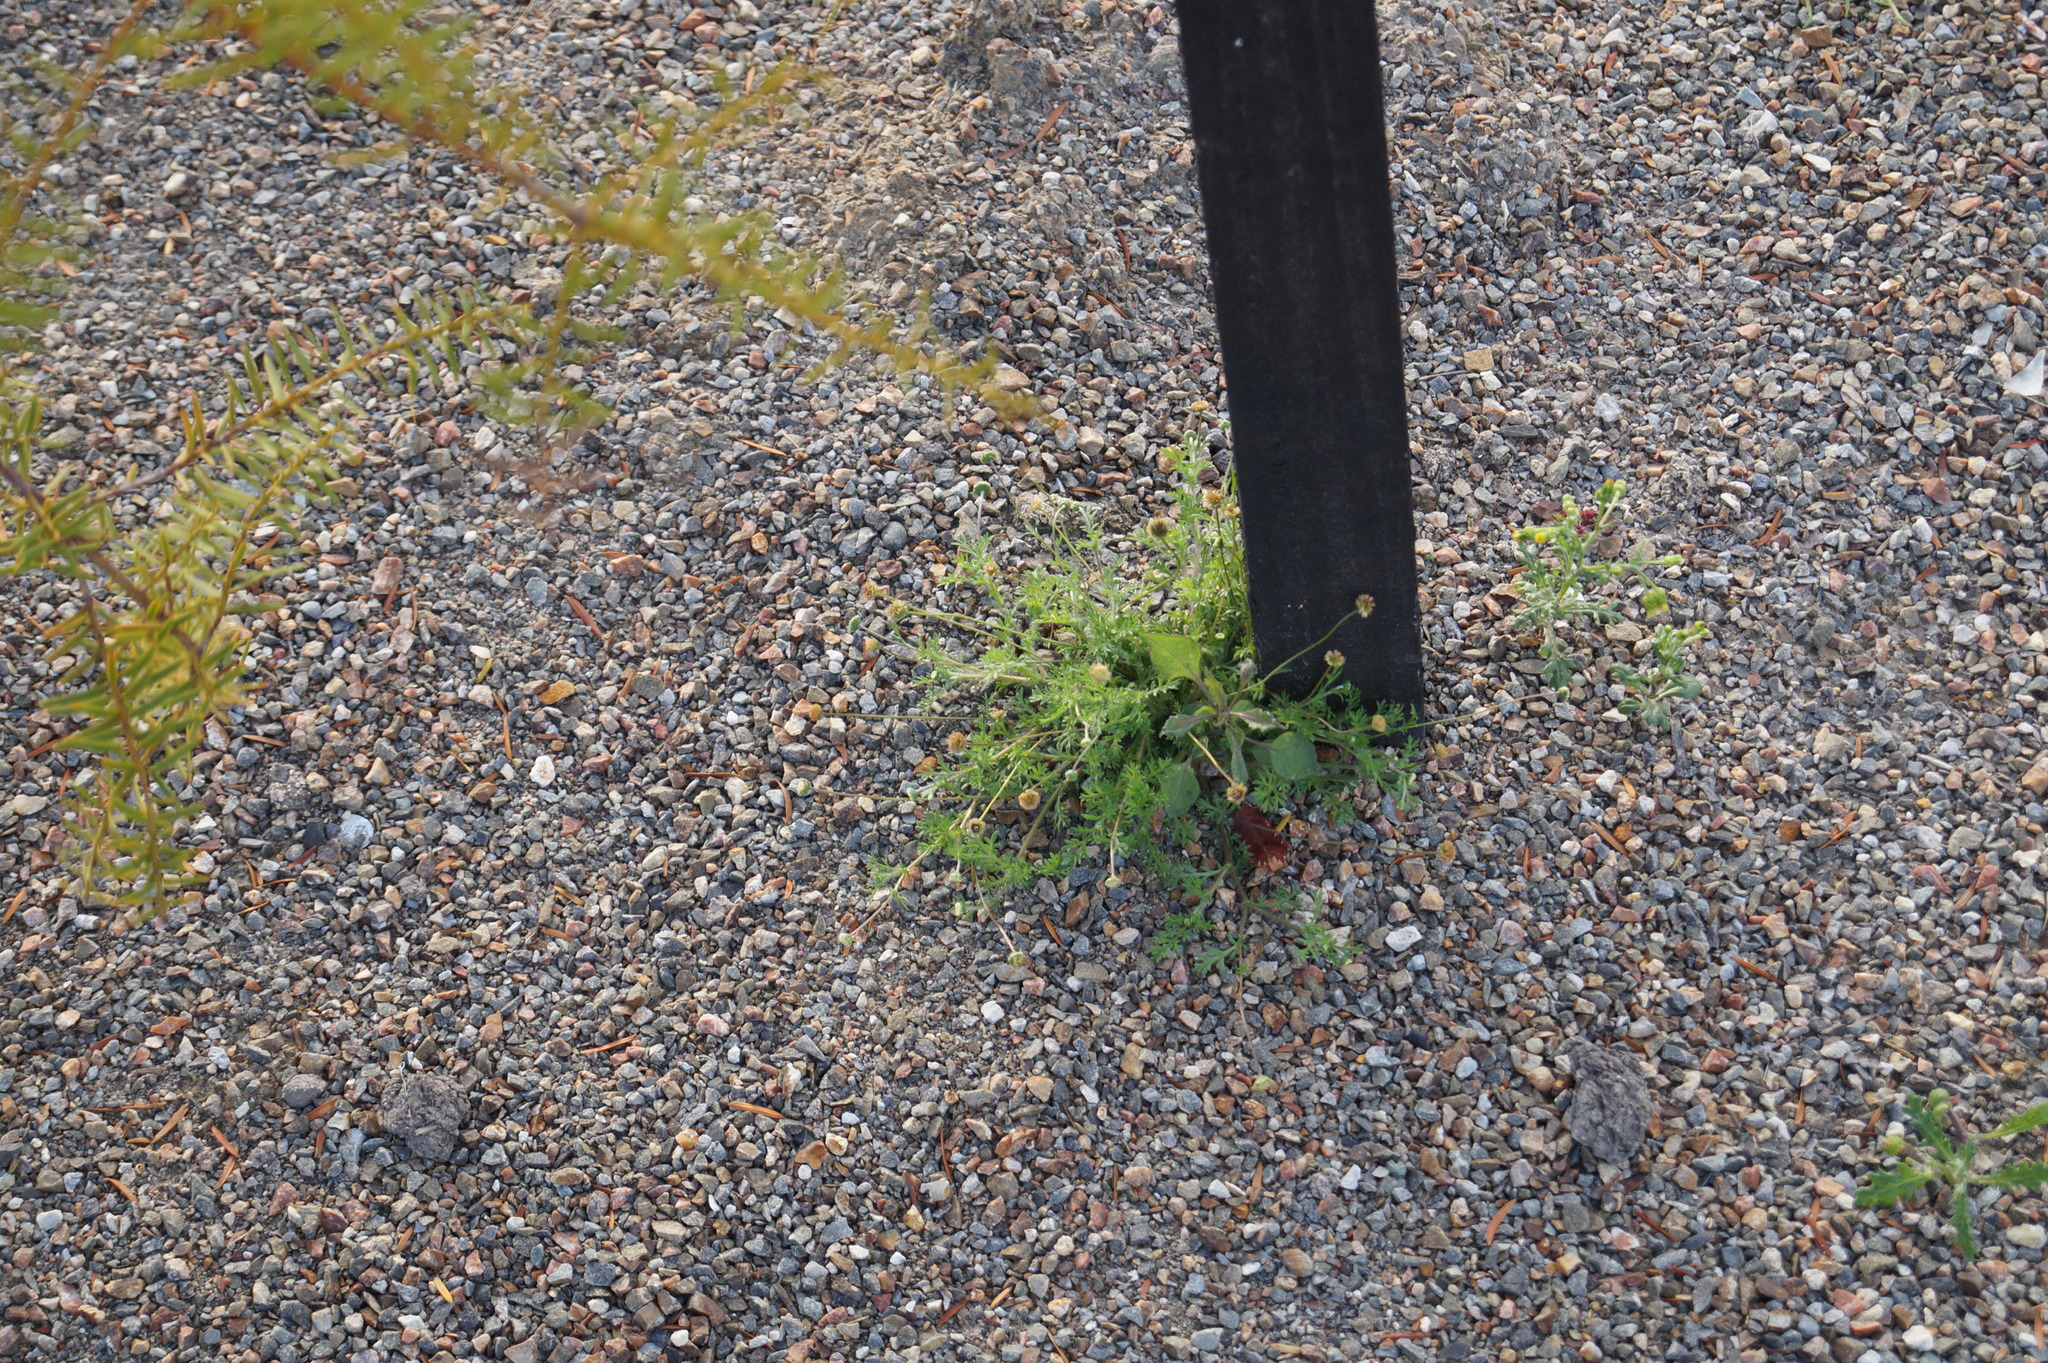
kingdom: Plantae
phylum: Tracheophyta
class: Magnoliopsida
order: Asterales
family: Asteraceae
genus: Cotula
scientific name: Cotula australis
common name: Australian waterbuttons
